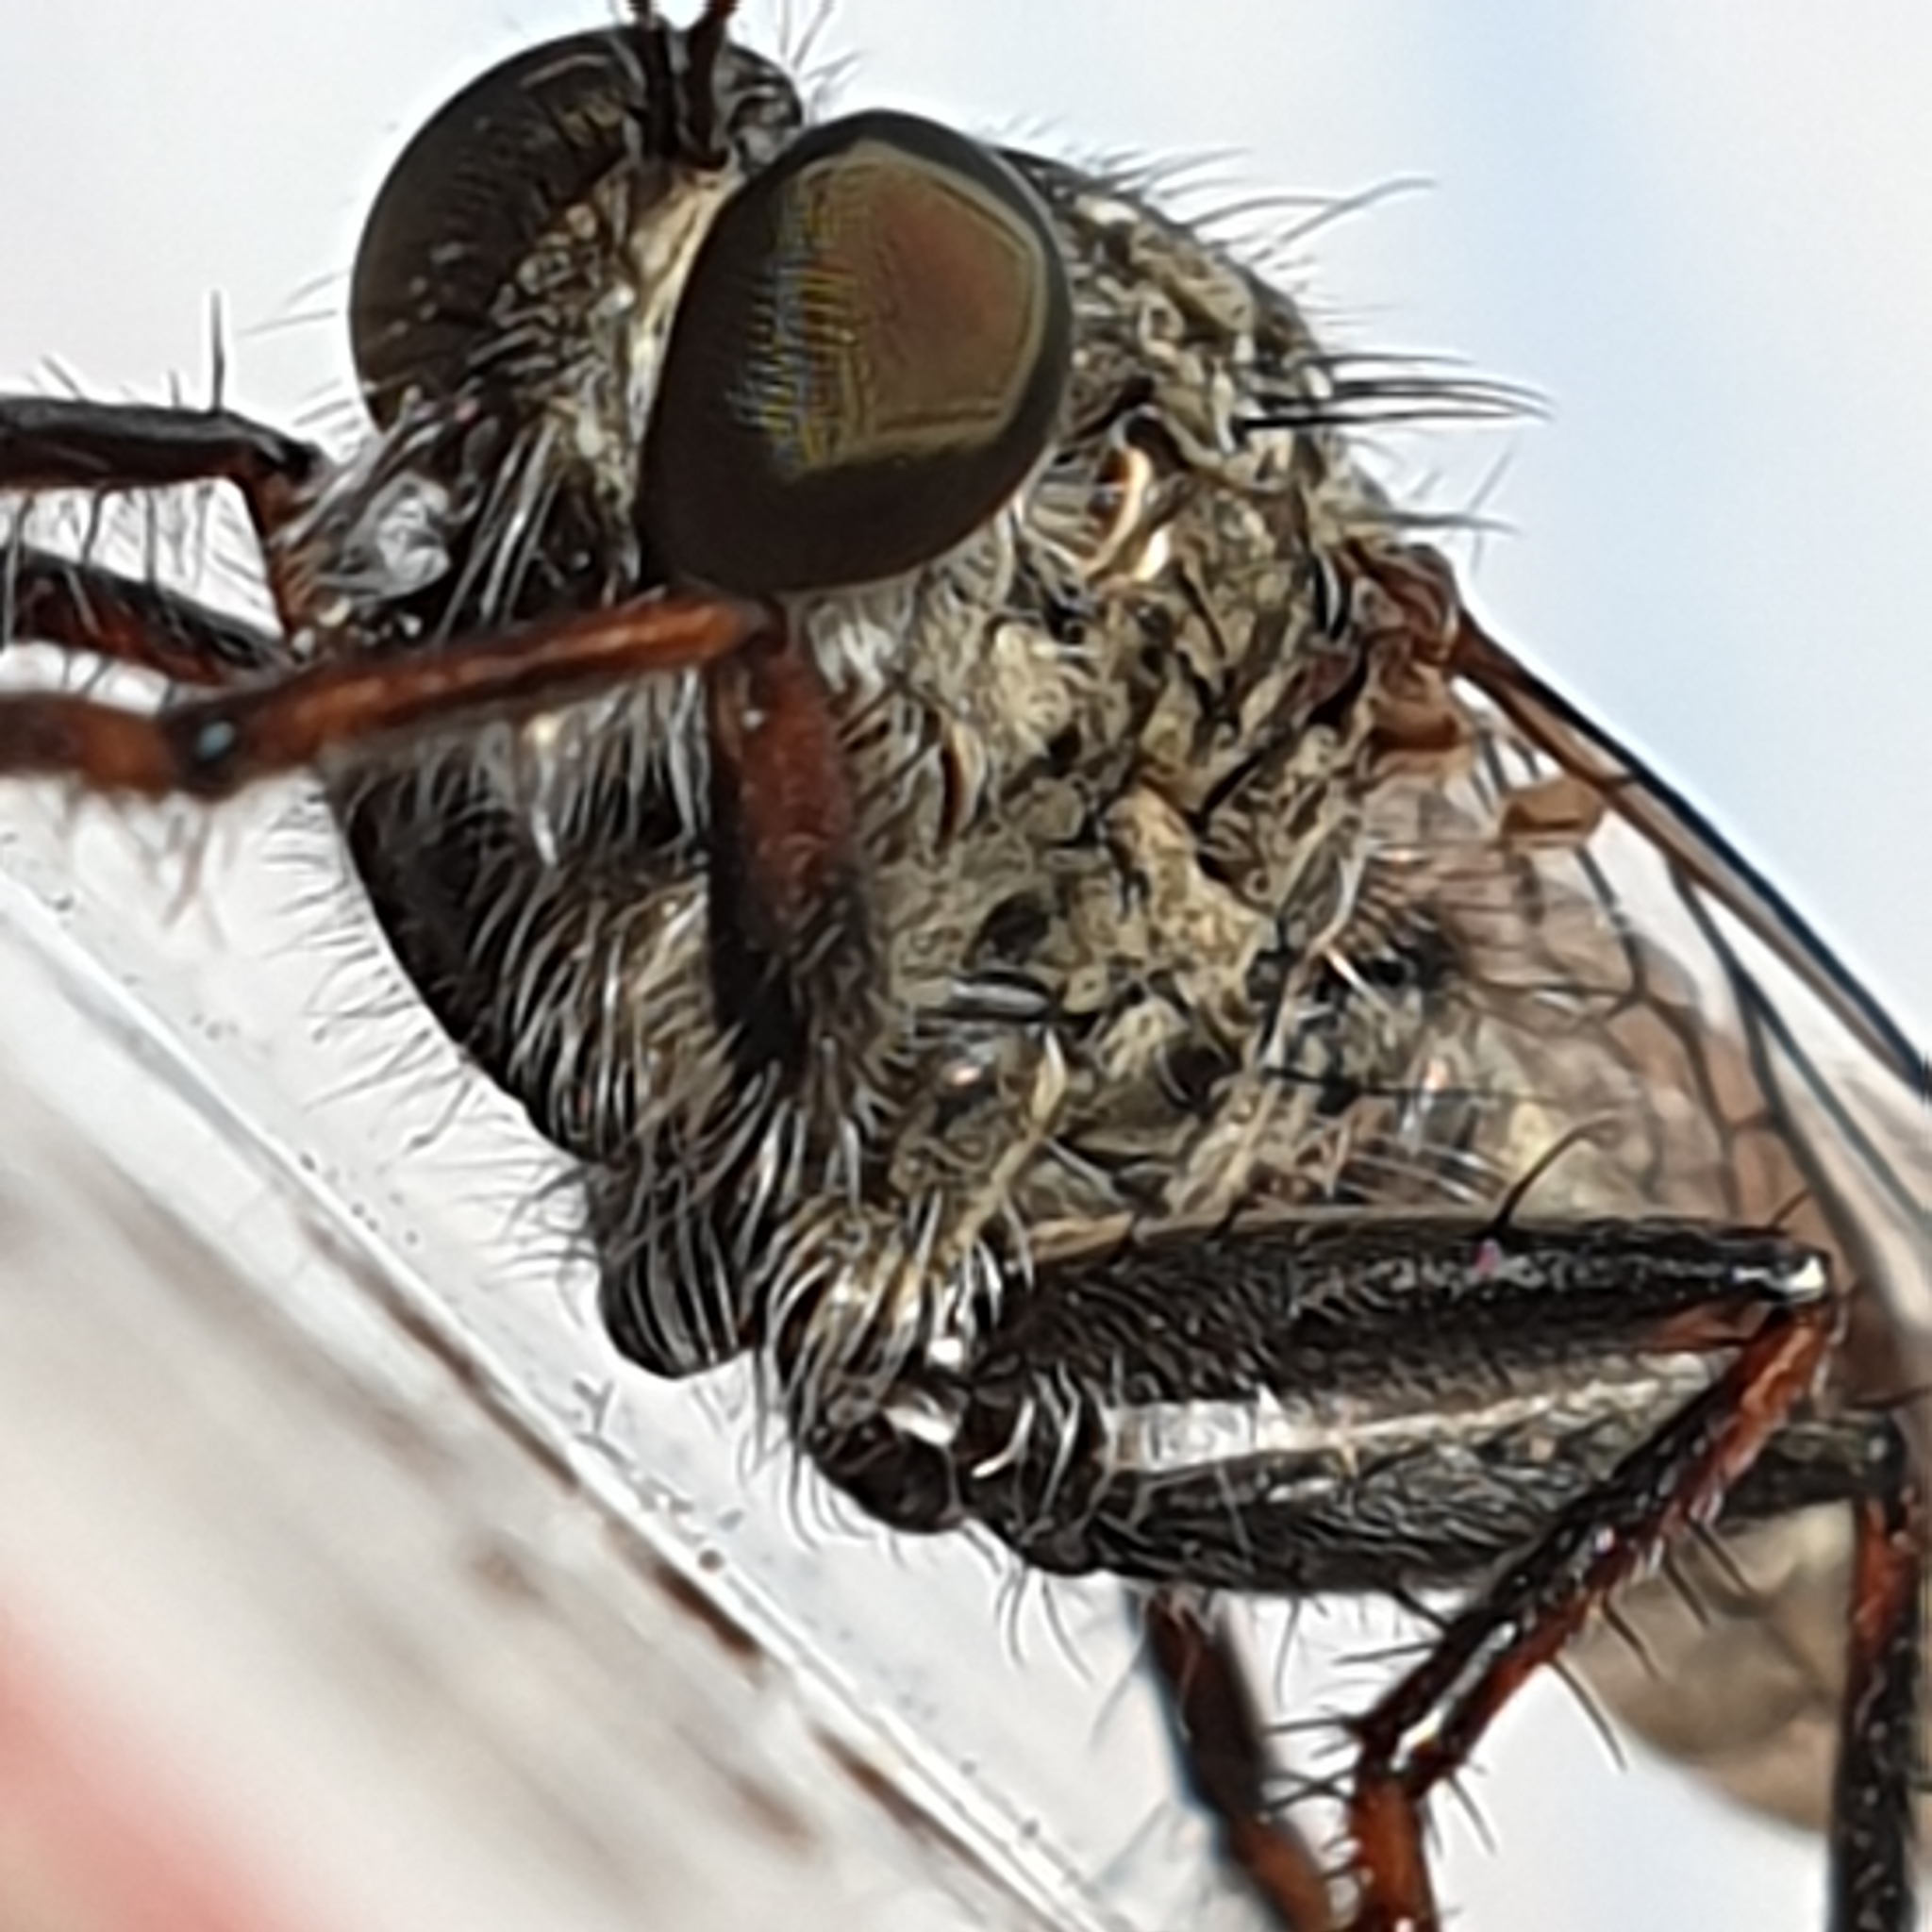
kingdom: Animalia
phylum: Arthropoda
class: Insecta
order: Diptera
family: Asilidae
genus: Machimus
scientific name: Machimus atricapillus
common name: Kite-tailed robberfly
